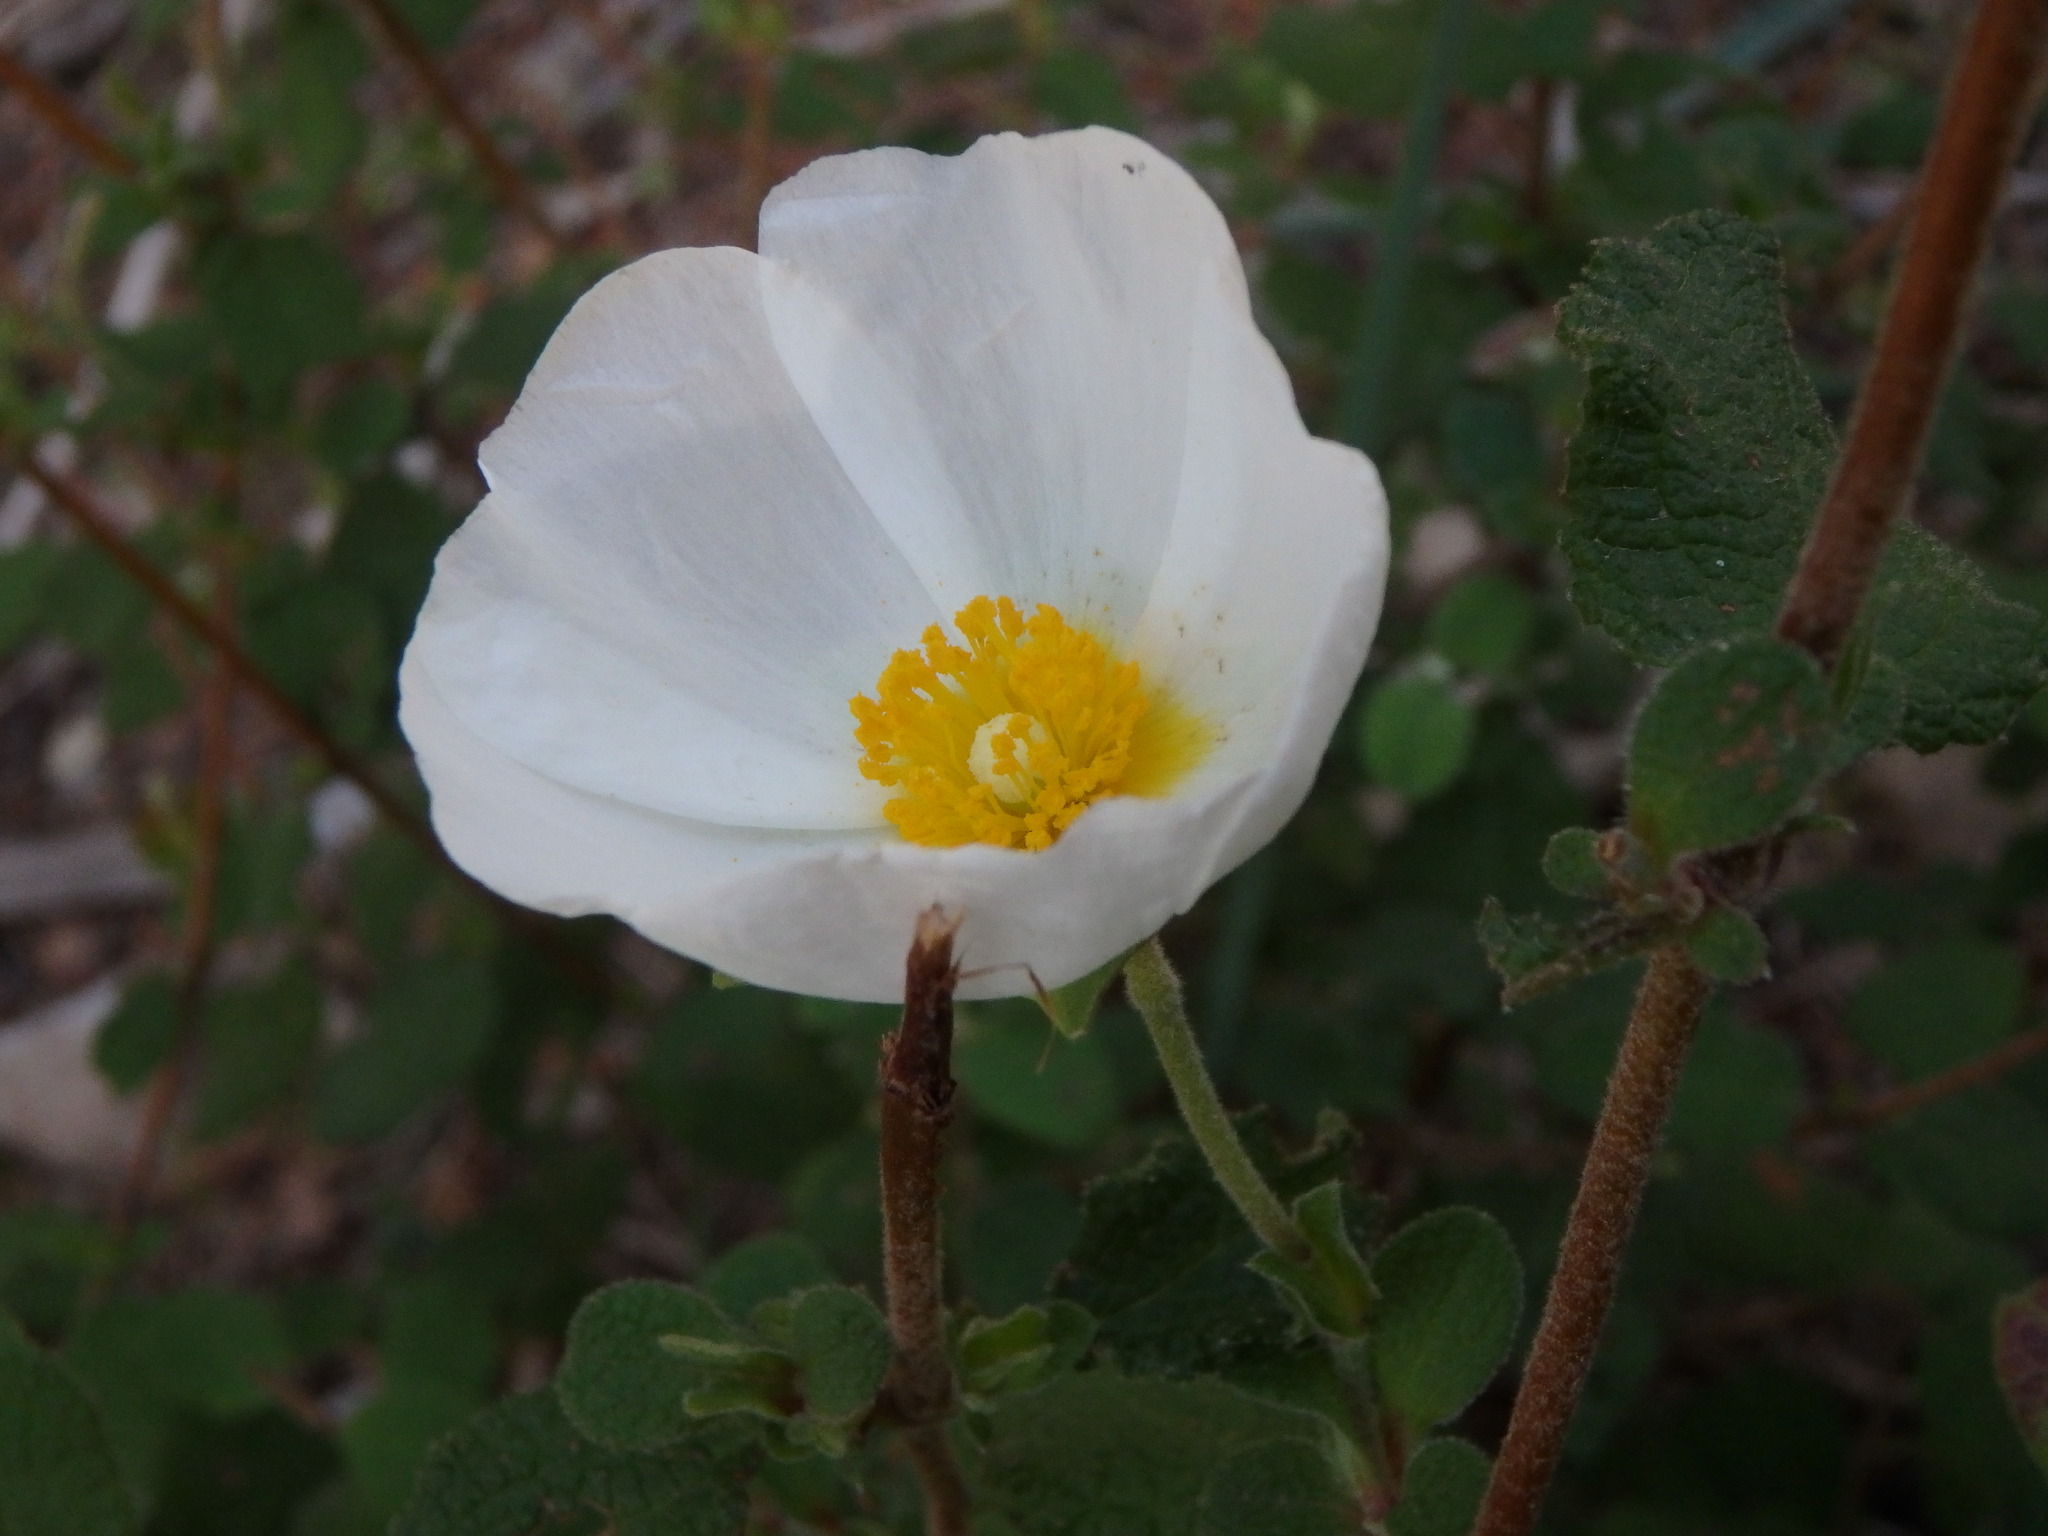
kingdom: Plantae
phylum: Tracheophyta
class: Magnoliopsida
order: Malvales
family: Cistaceae
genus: Cistus
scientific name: Cistus salviifolius
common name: Salvia cistus
